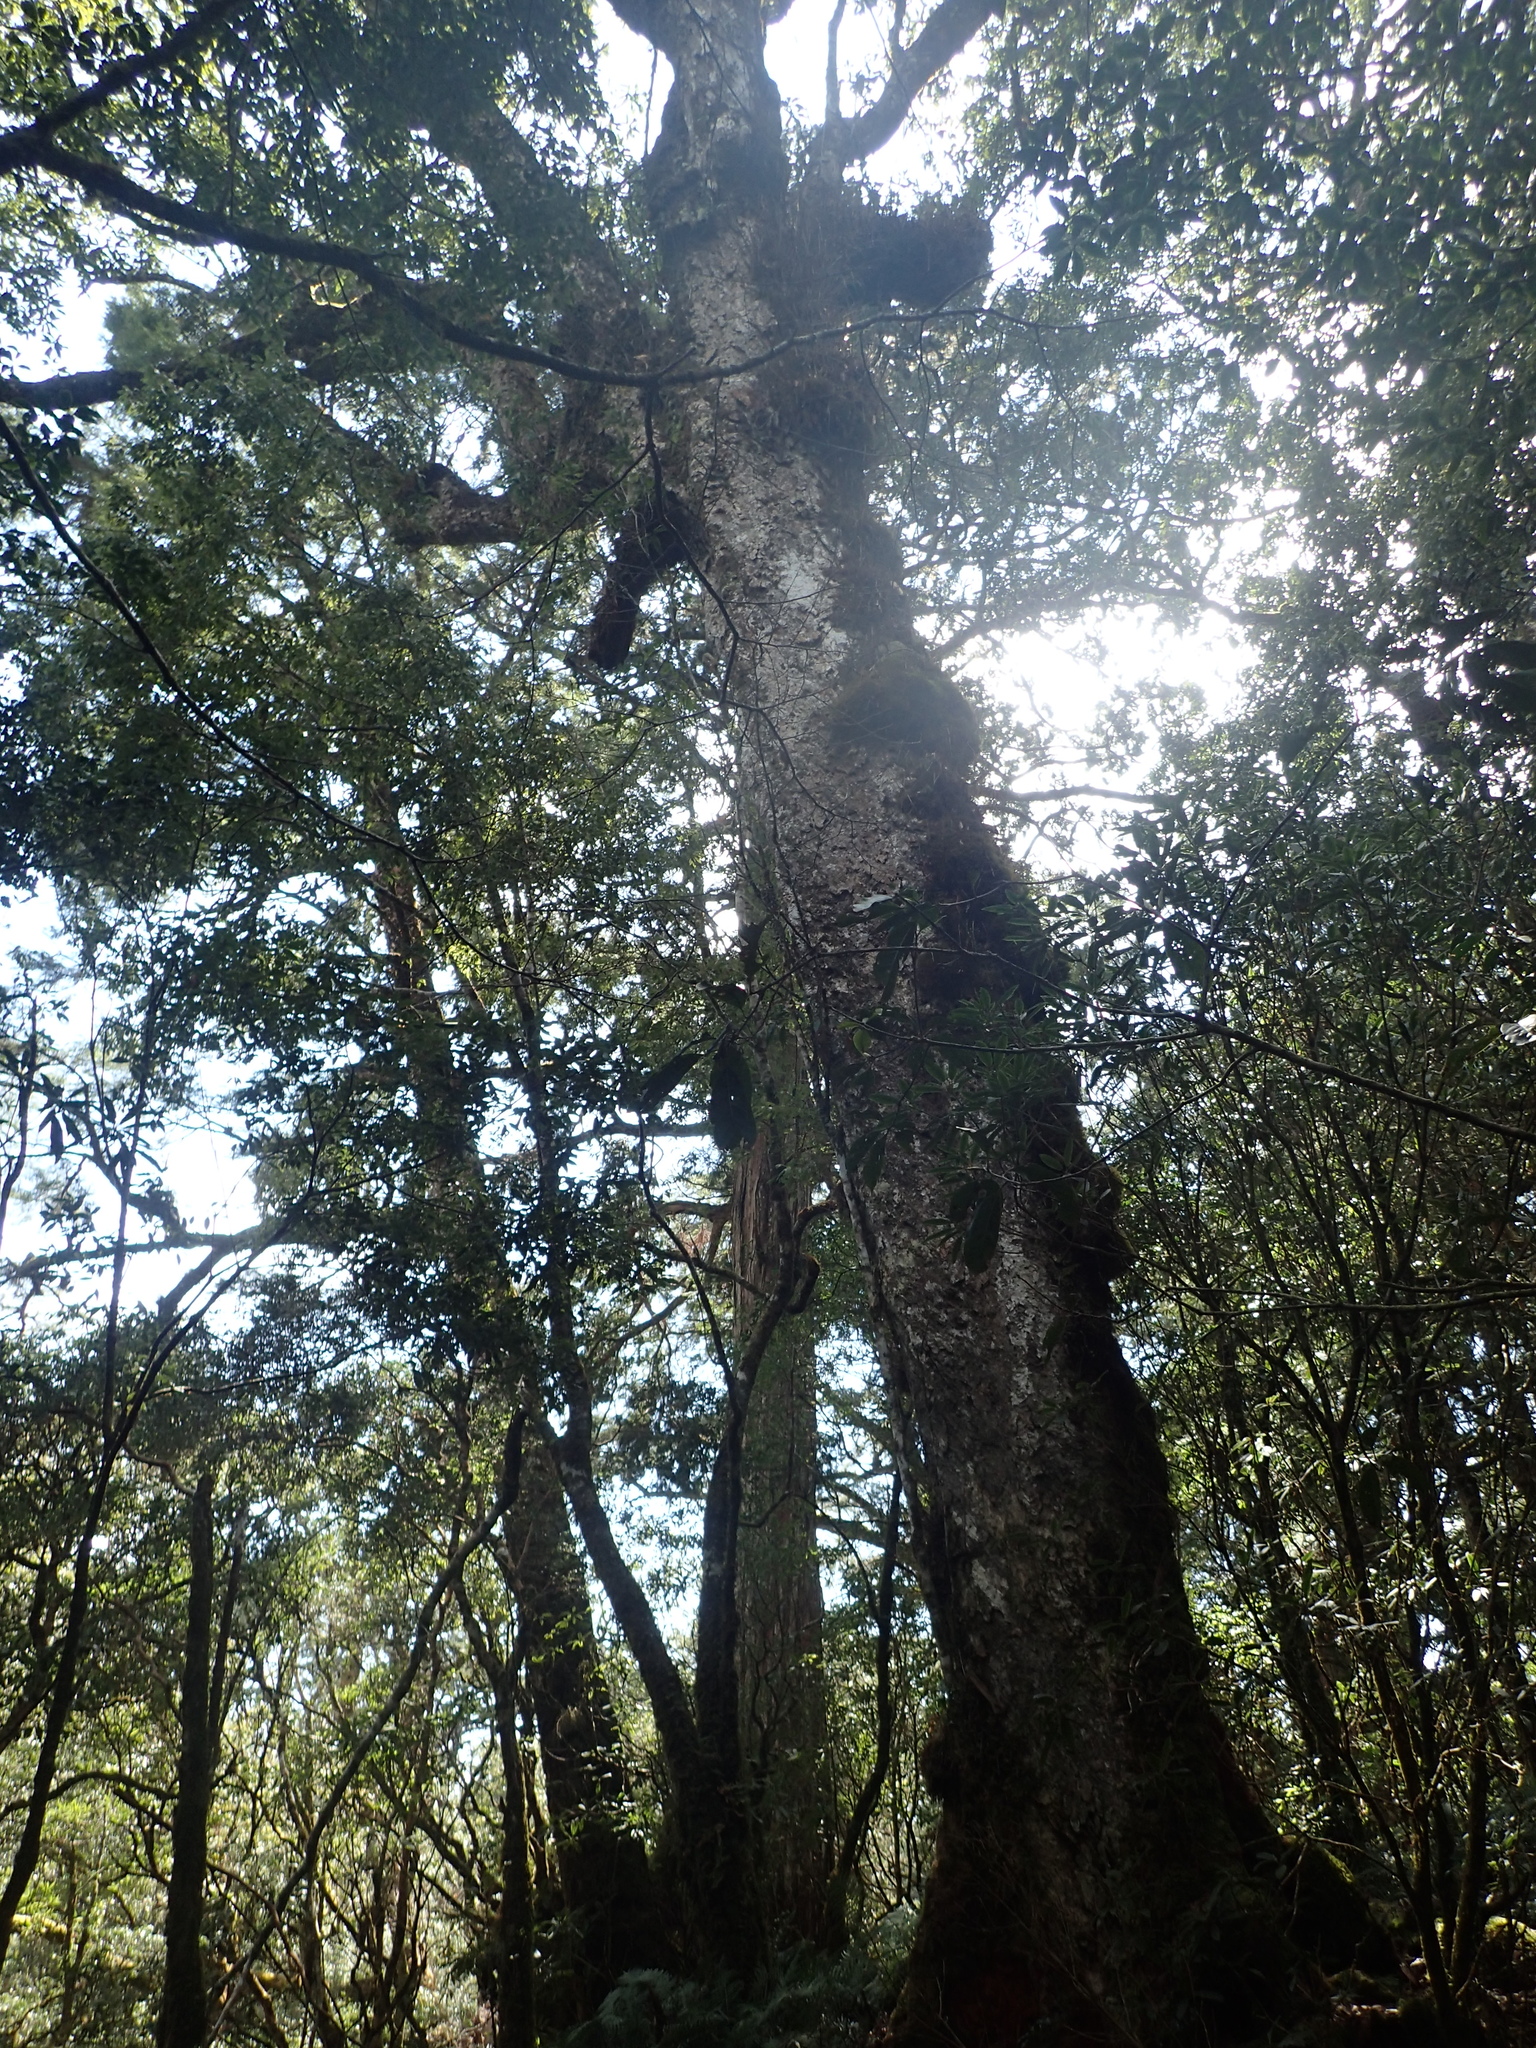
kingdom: Plantae
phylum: Tracheophyta
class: Magnoliopsida
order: Fagales
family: Fagaceae
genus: Quercus
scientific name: Quercus morii
